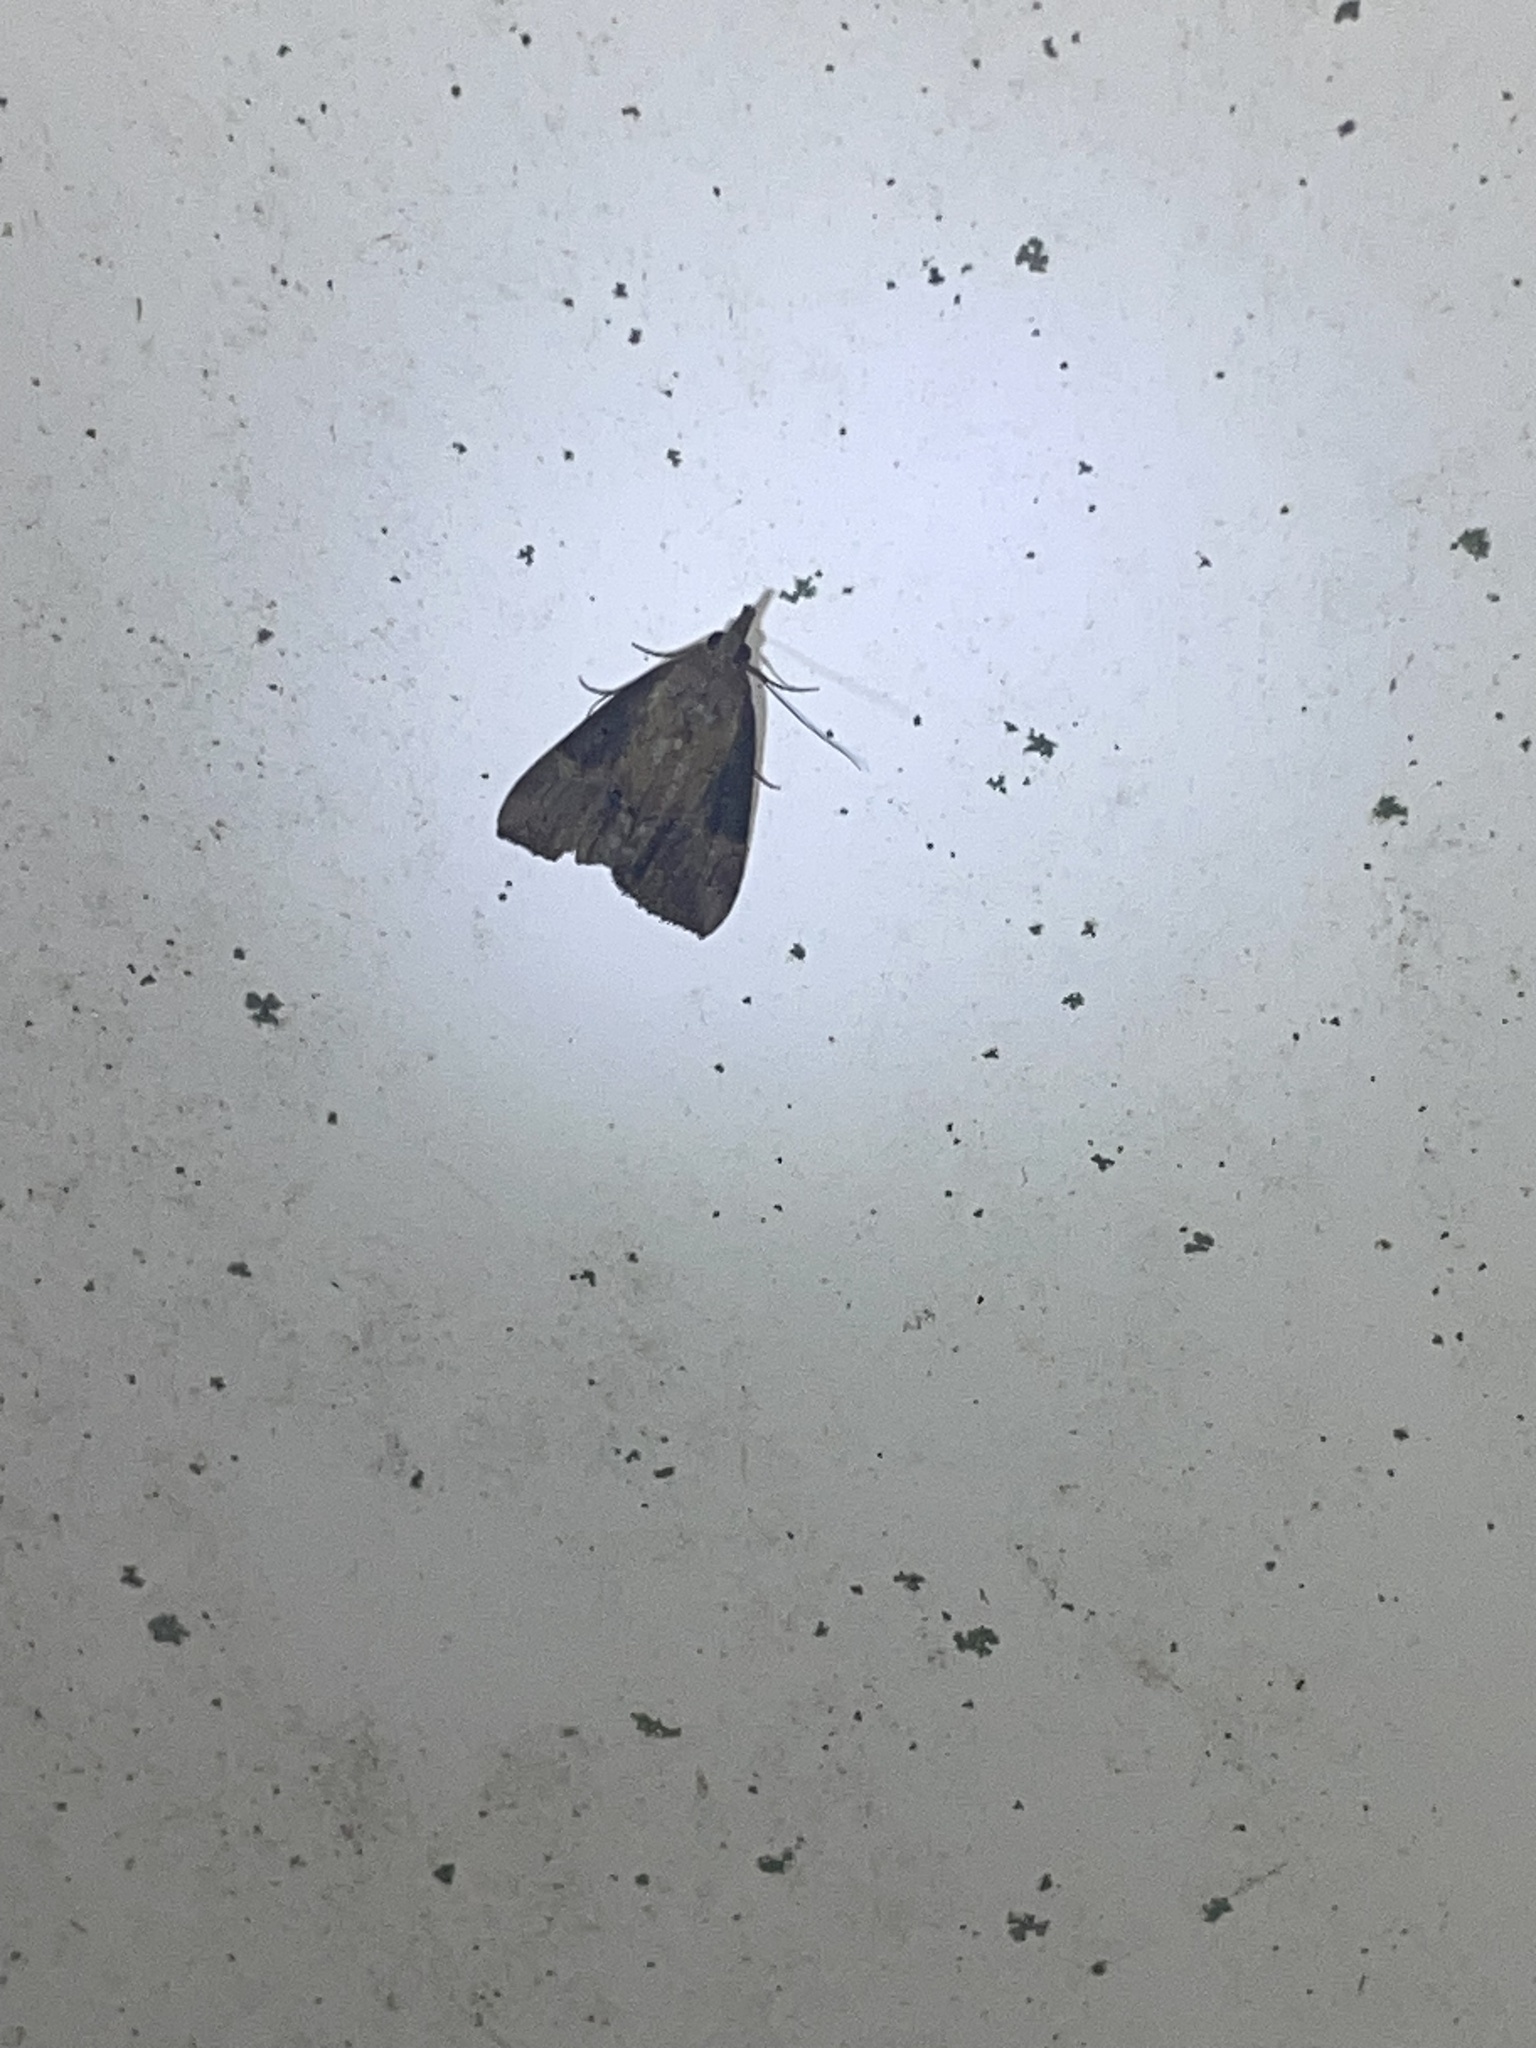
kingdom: Animalia
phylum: Arthropoda
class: Insecta
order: Lepidoptera
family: Erebidae
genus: Hypena
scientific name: Hypena scabra
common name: Green cloverworm
